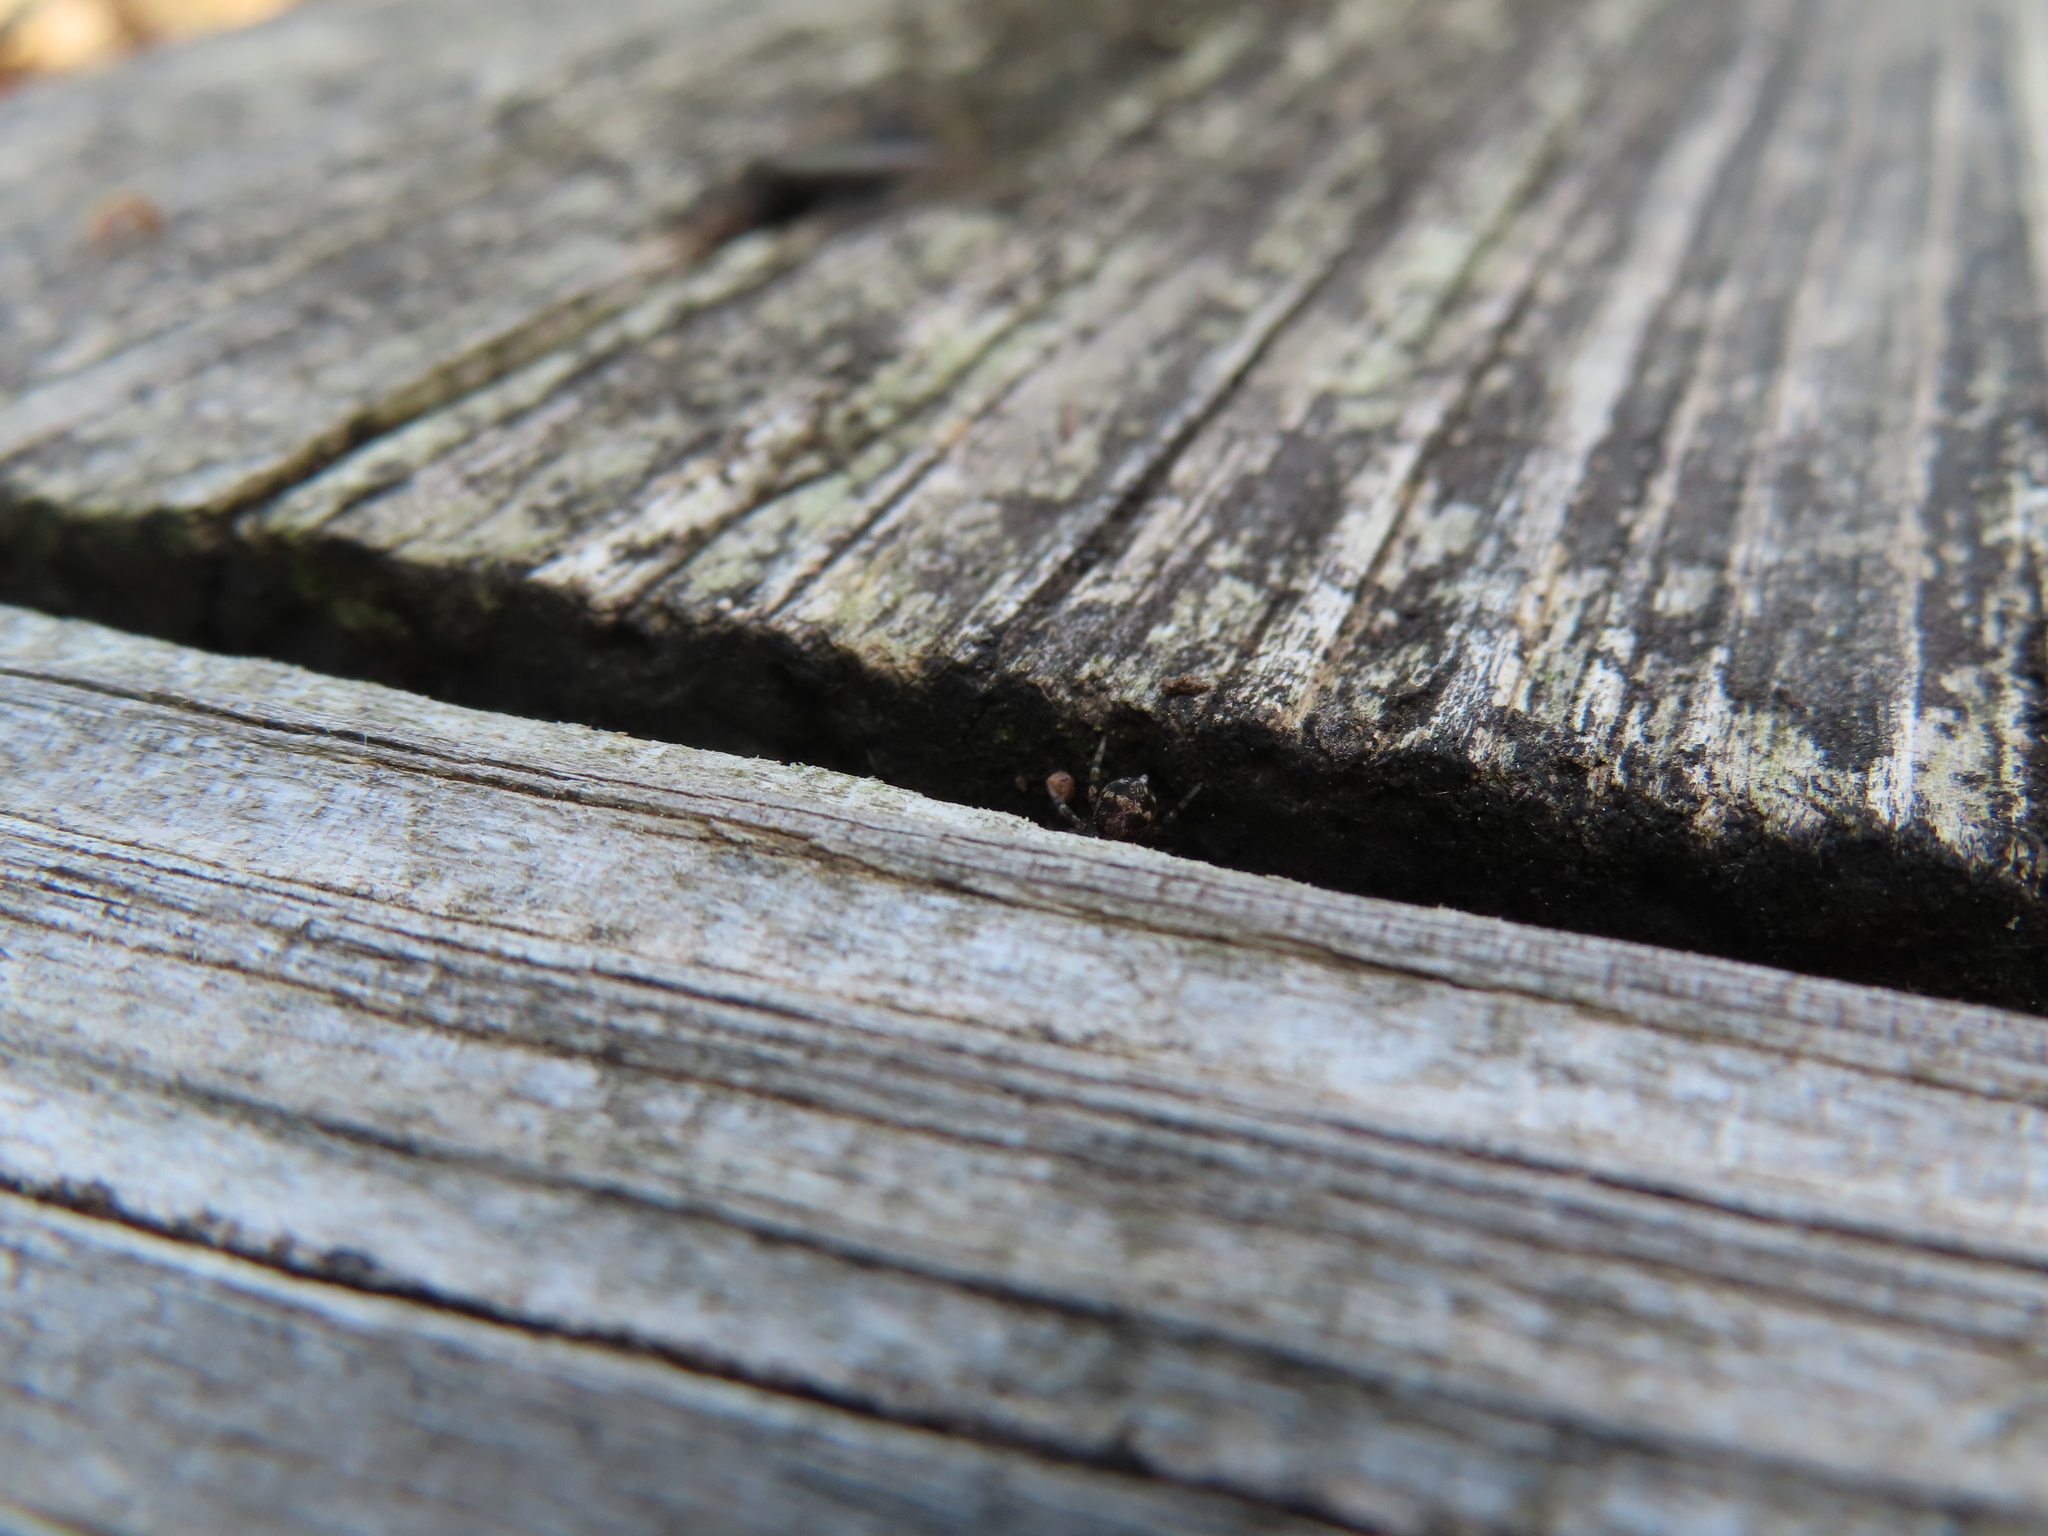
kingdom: Animalia
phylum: Arthropoda
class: Arachnida
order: Araneae
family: Salticidae
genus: Naphrys
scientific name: Naphrys pulex
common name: Flea jumping spider
